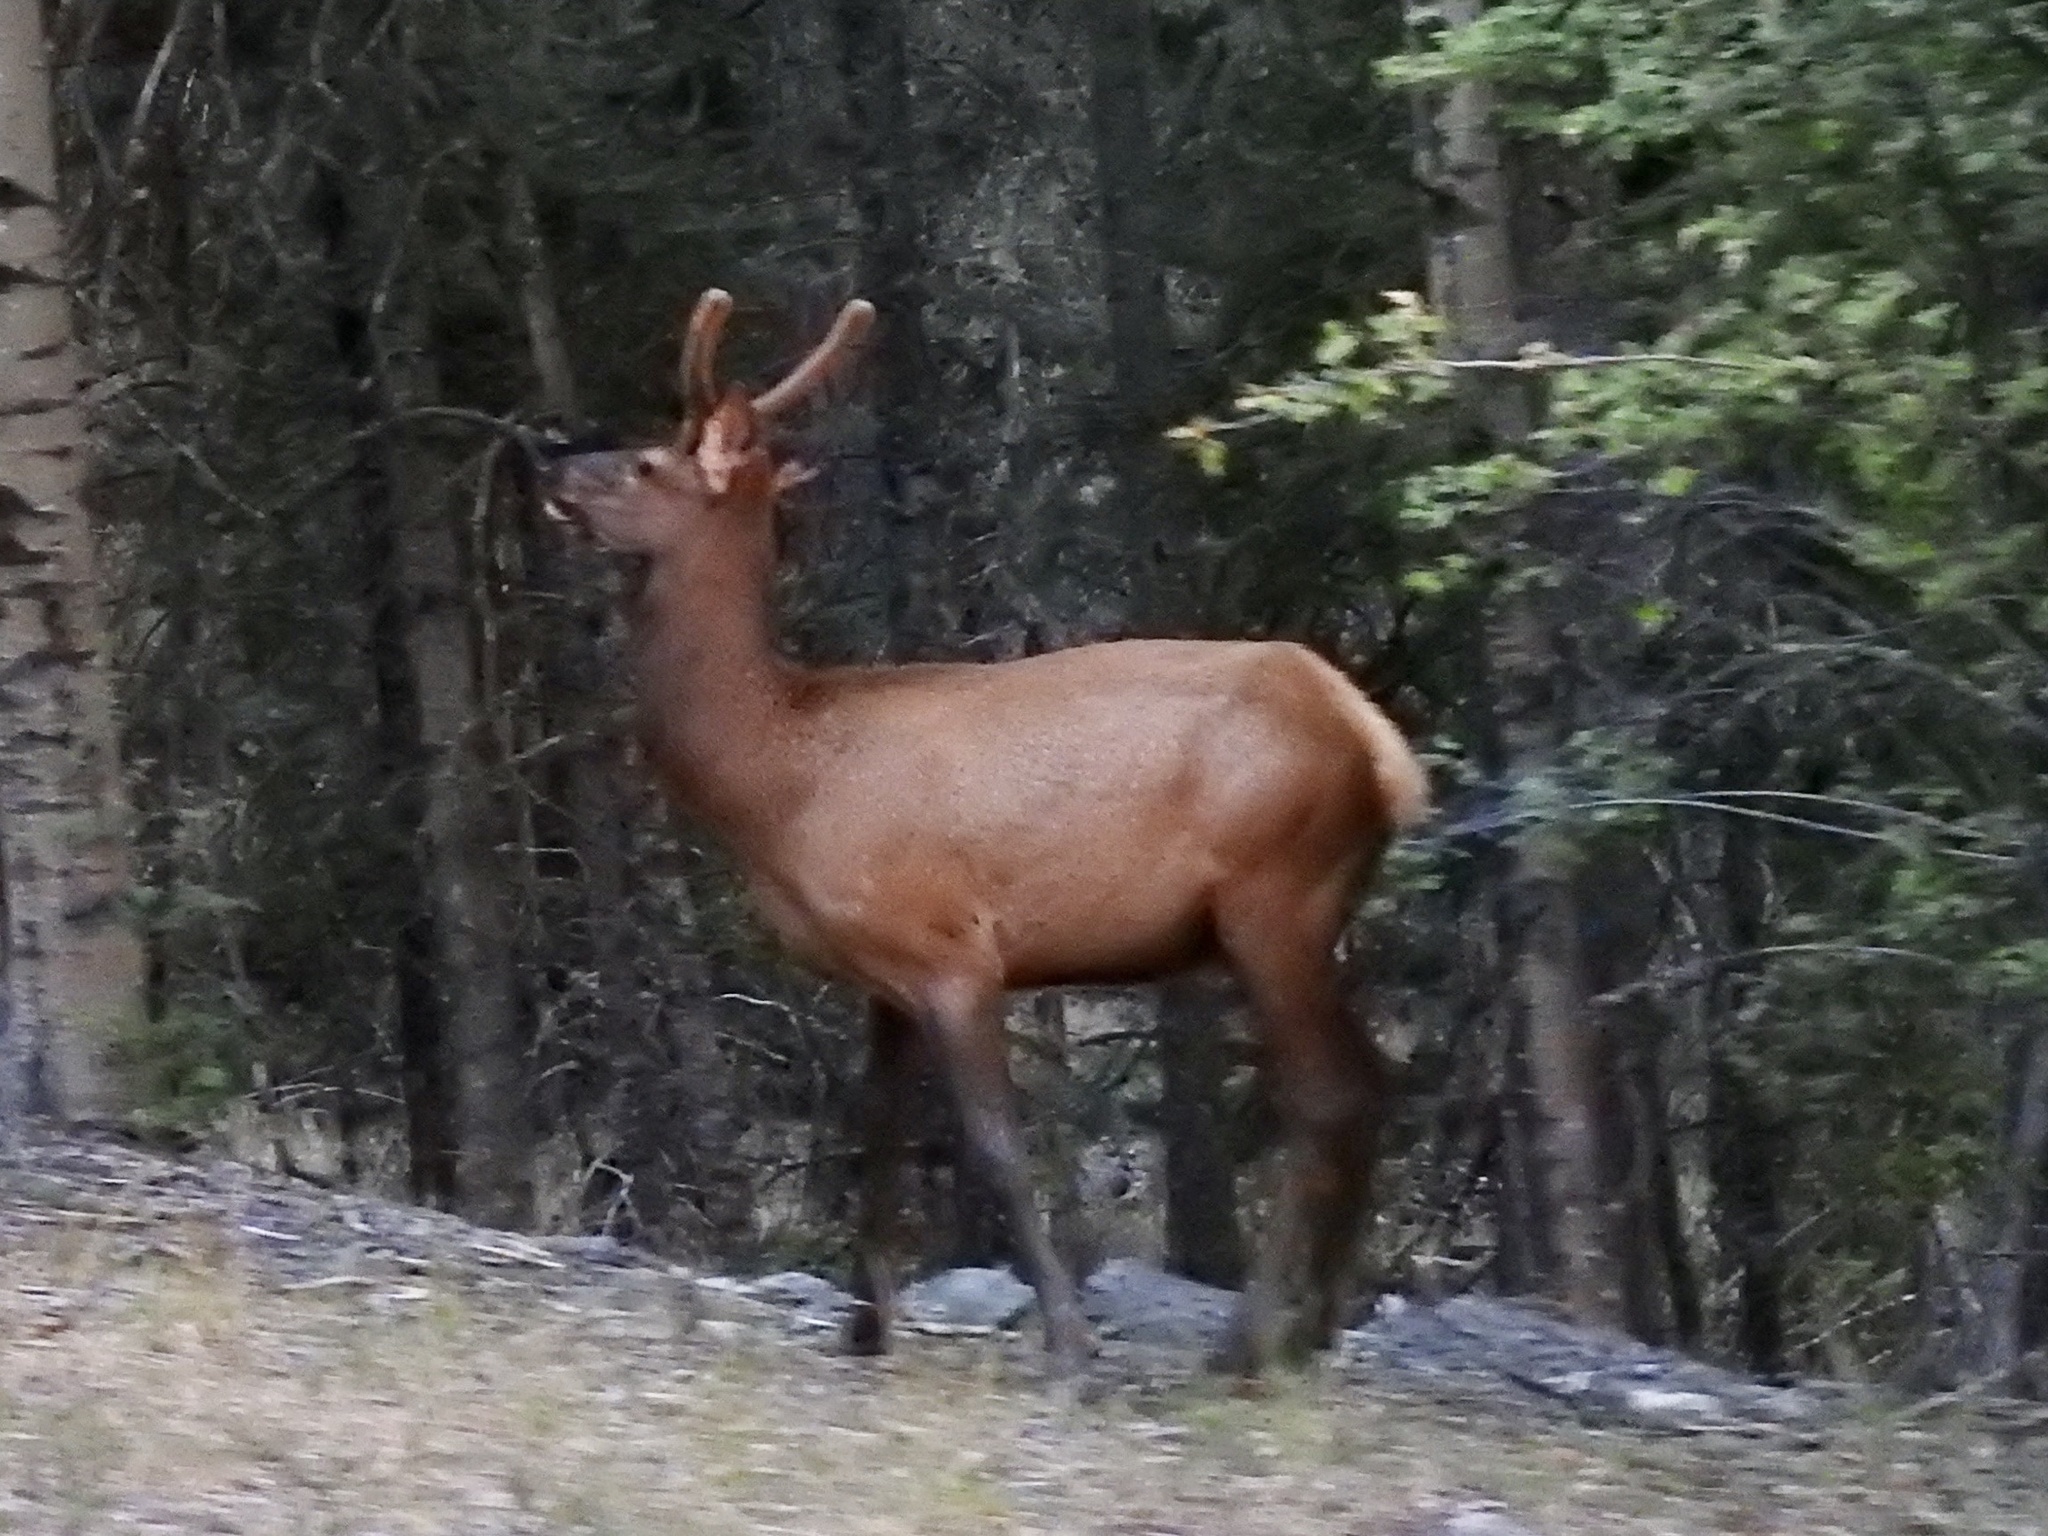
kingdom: Animalia
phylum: Chordata
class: Mammalia
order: Artiodactyla
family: Cervidae
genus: Cervus
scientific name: Cervus elaphus
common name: Red deer
